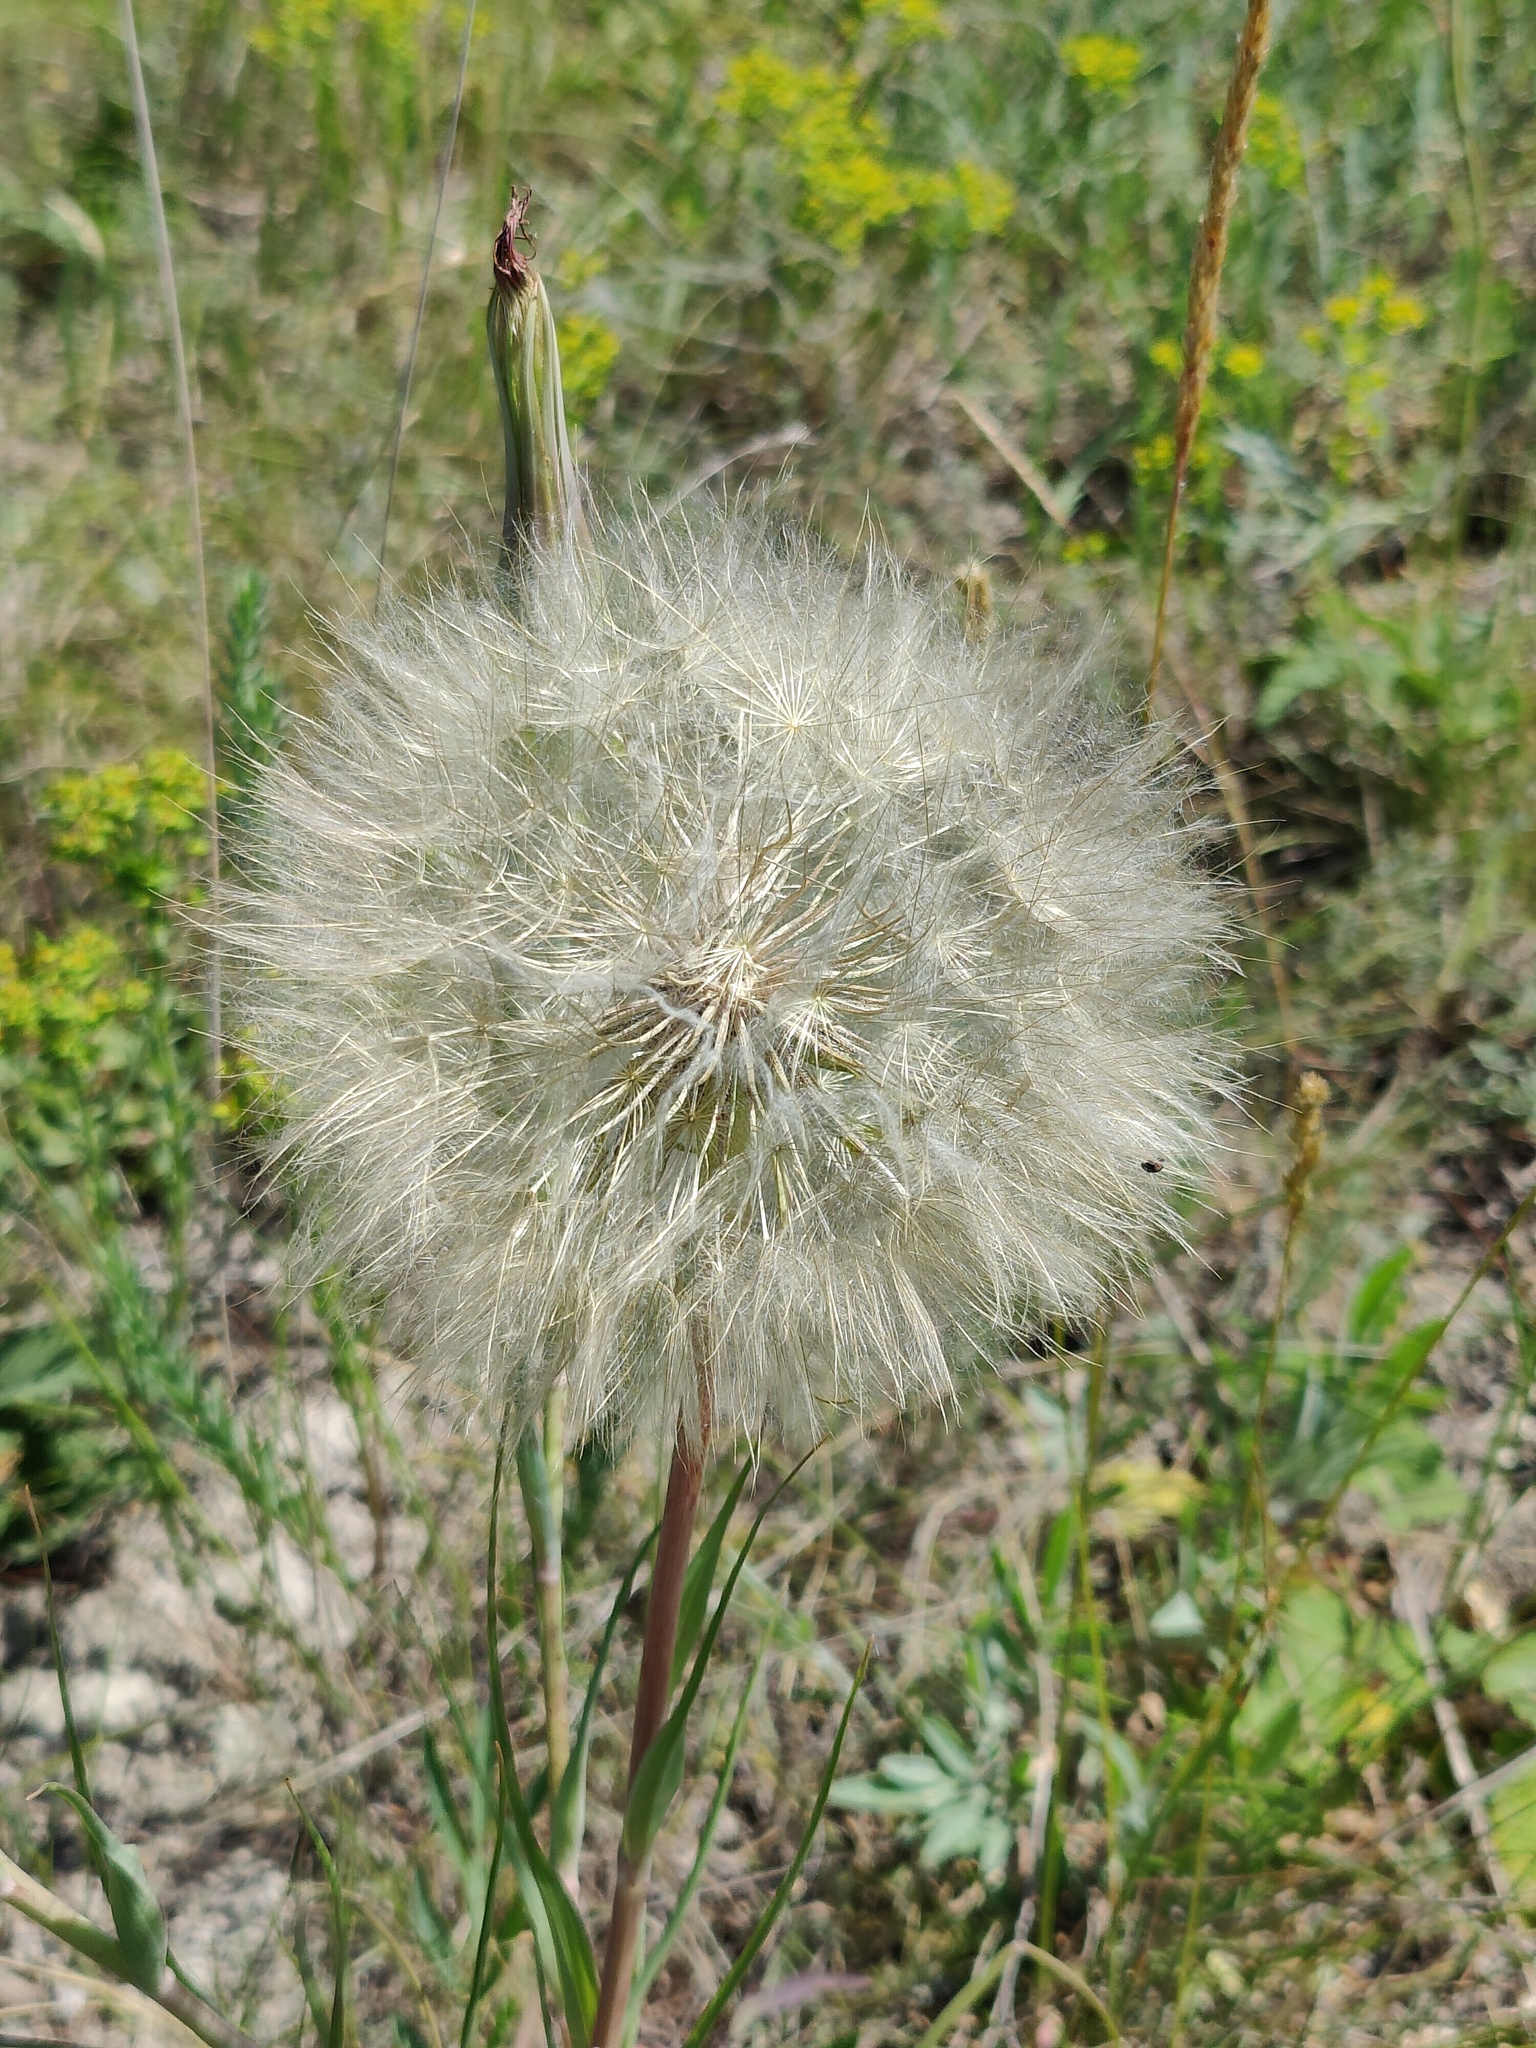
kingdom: Plantae
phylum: Tracheophyta
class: Magnoliopsida
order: Asterales
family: Asteraceae
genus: Tragopogon
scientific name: Tragopogon dubius
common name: Yellow salsify
